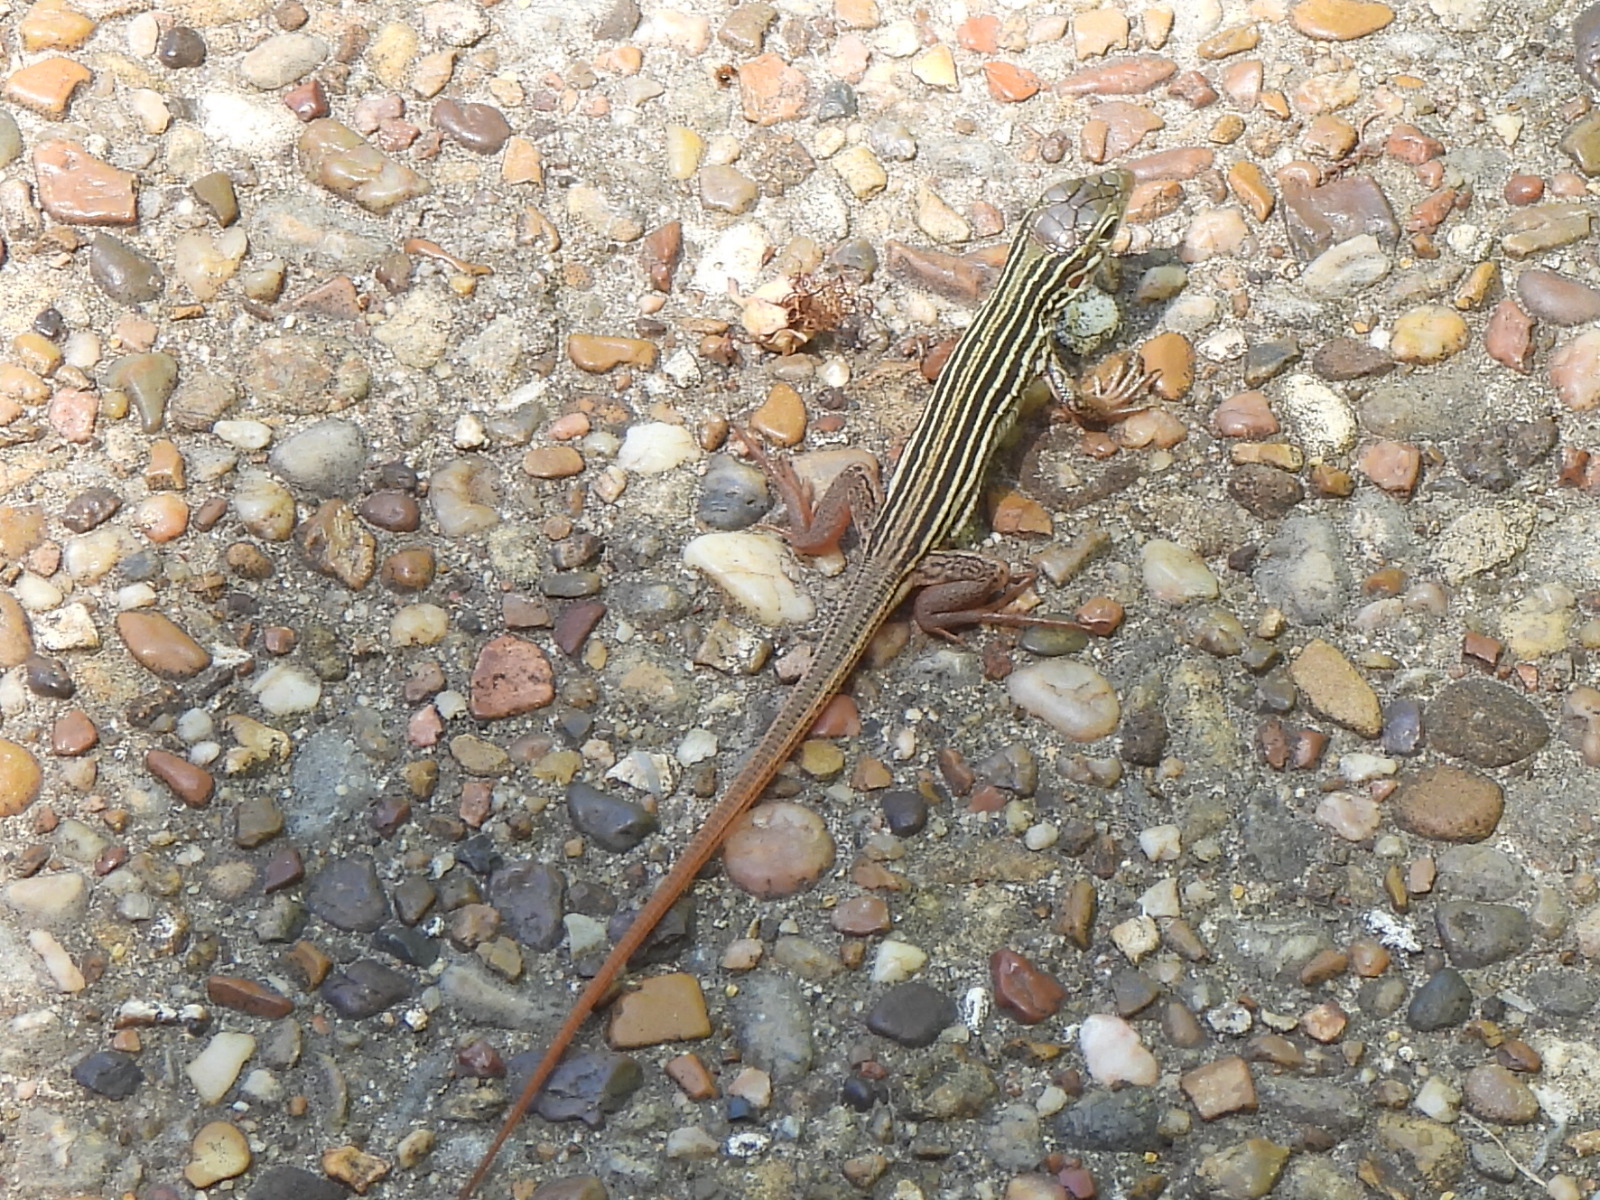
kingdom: Animalia
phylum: Chordata
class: Squamata
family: Teiidae
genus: Aspidoscelis
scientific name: Aspidoscelis gularis
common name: Eastern spotted whiptail
